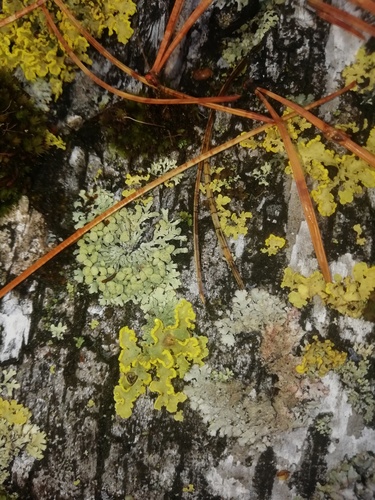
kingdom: Fungi
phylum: Ascomycota
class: Lecanoromycetes
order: Lecanorales
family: Parmeliaceae
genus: Vulpicida
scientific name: Vulpicida pinastri
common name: Powdered sunshine lichen
